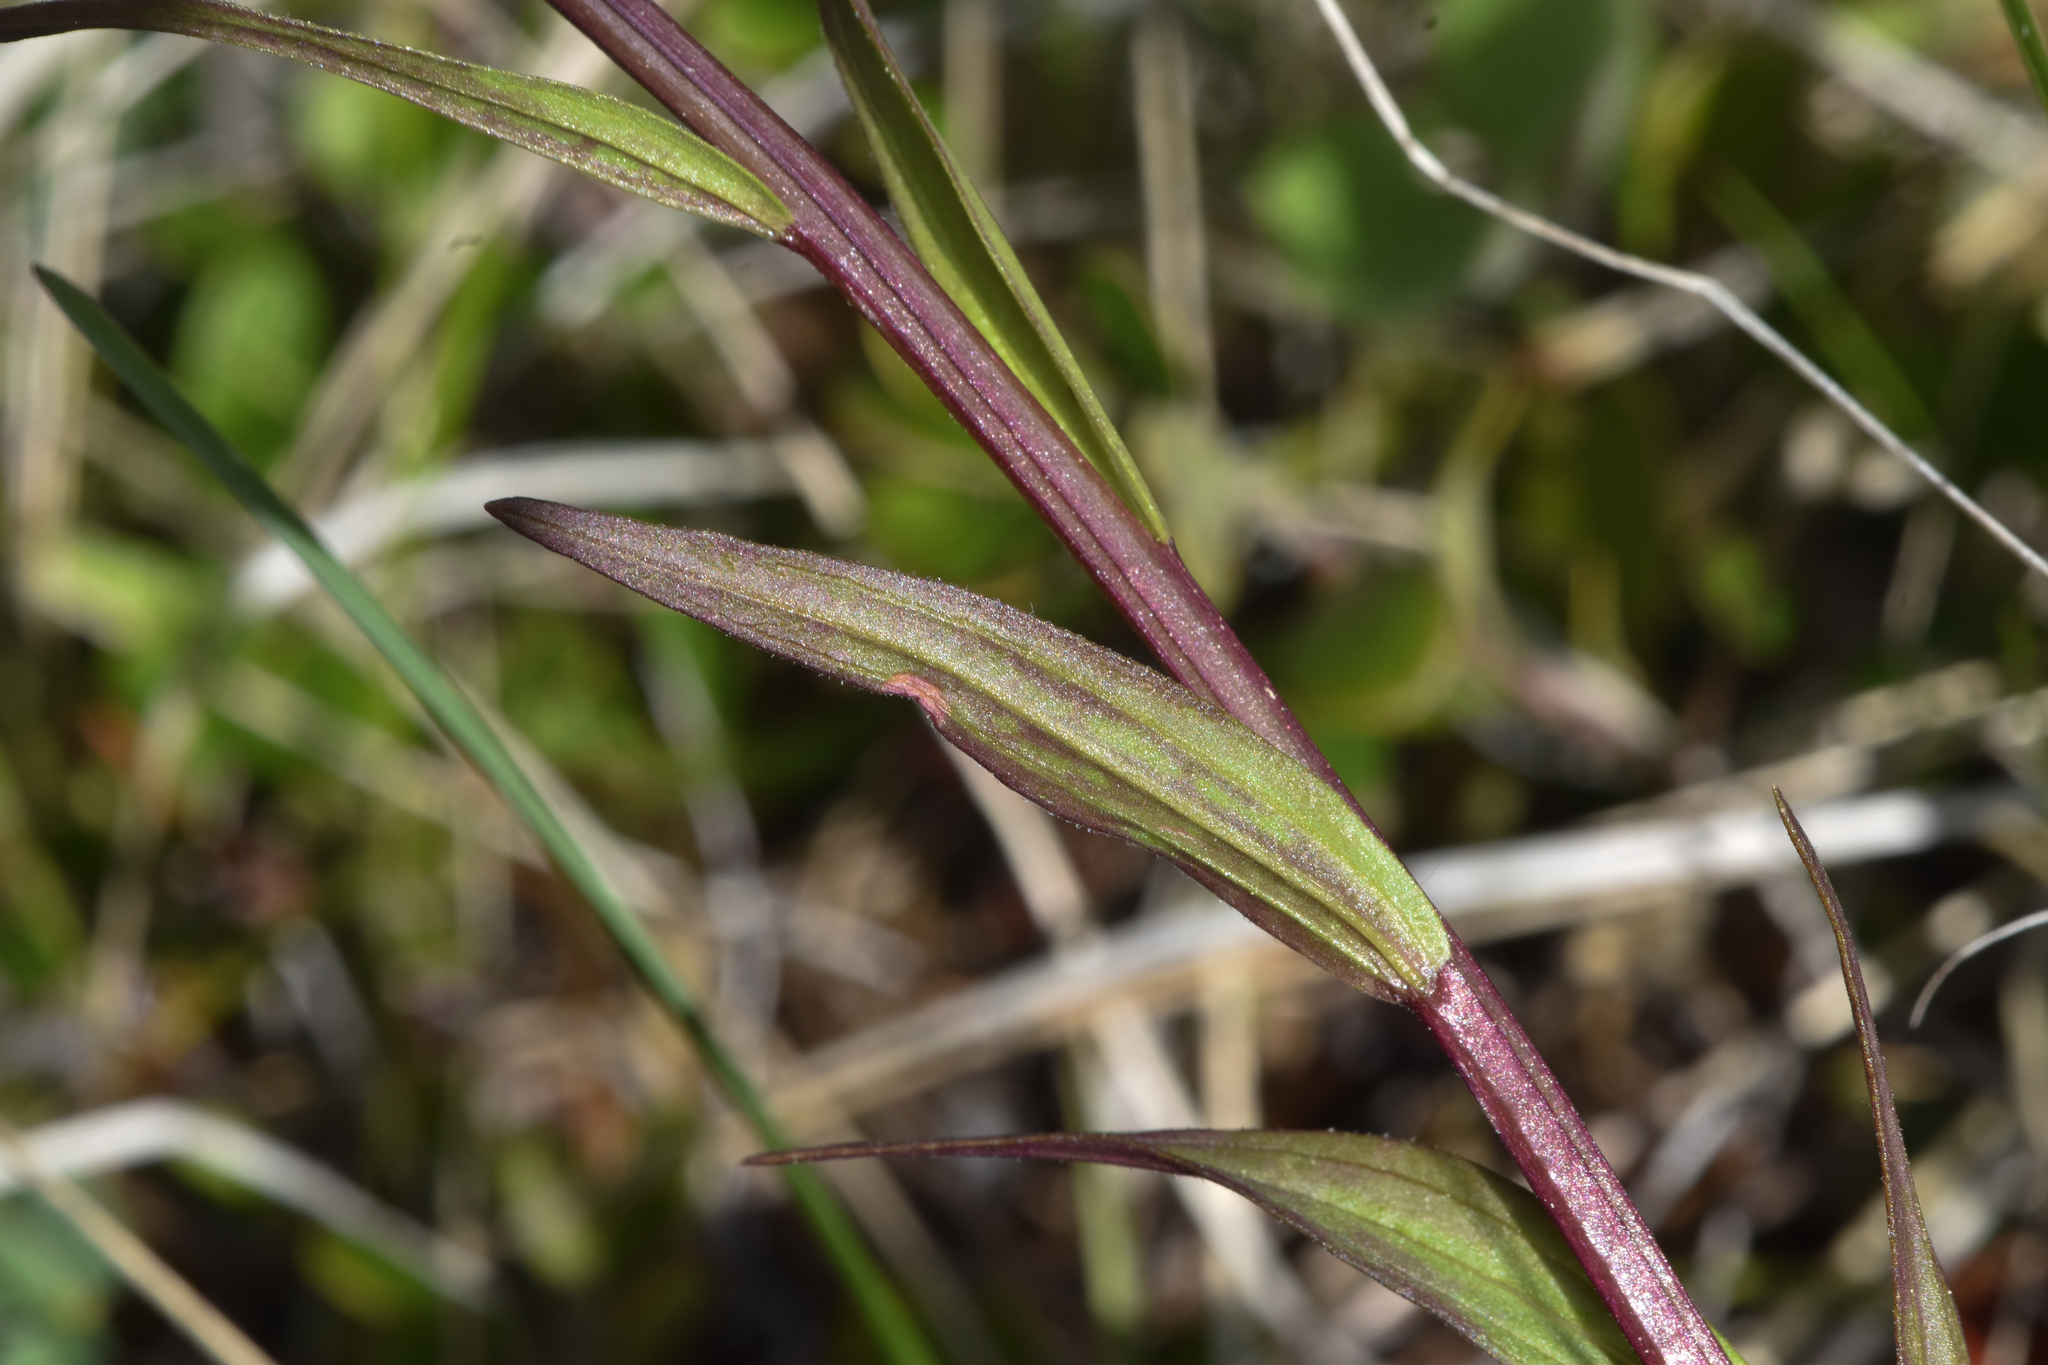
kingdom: Plantae
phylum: Tracheophyta
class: Magnoliopsida
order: Lamiales
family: Orobanchaceae
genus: Castilleja
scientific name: Castilleja miniata
